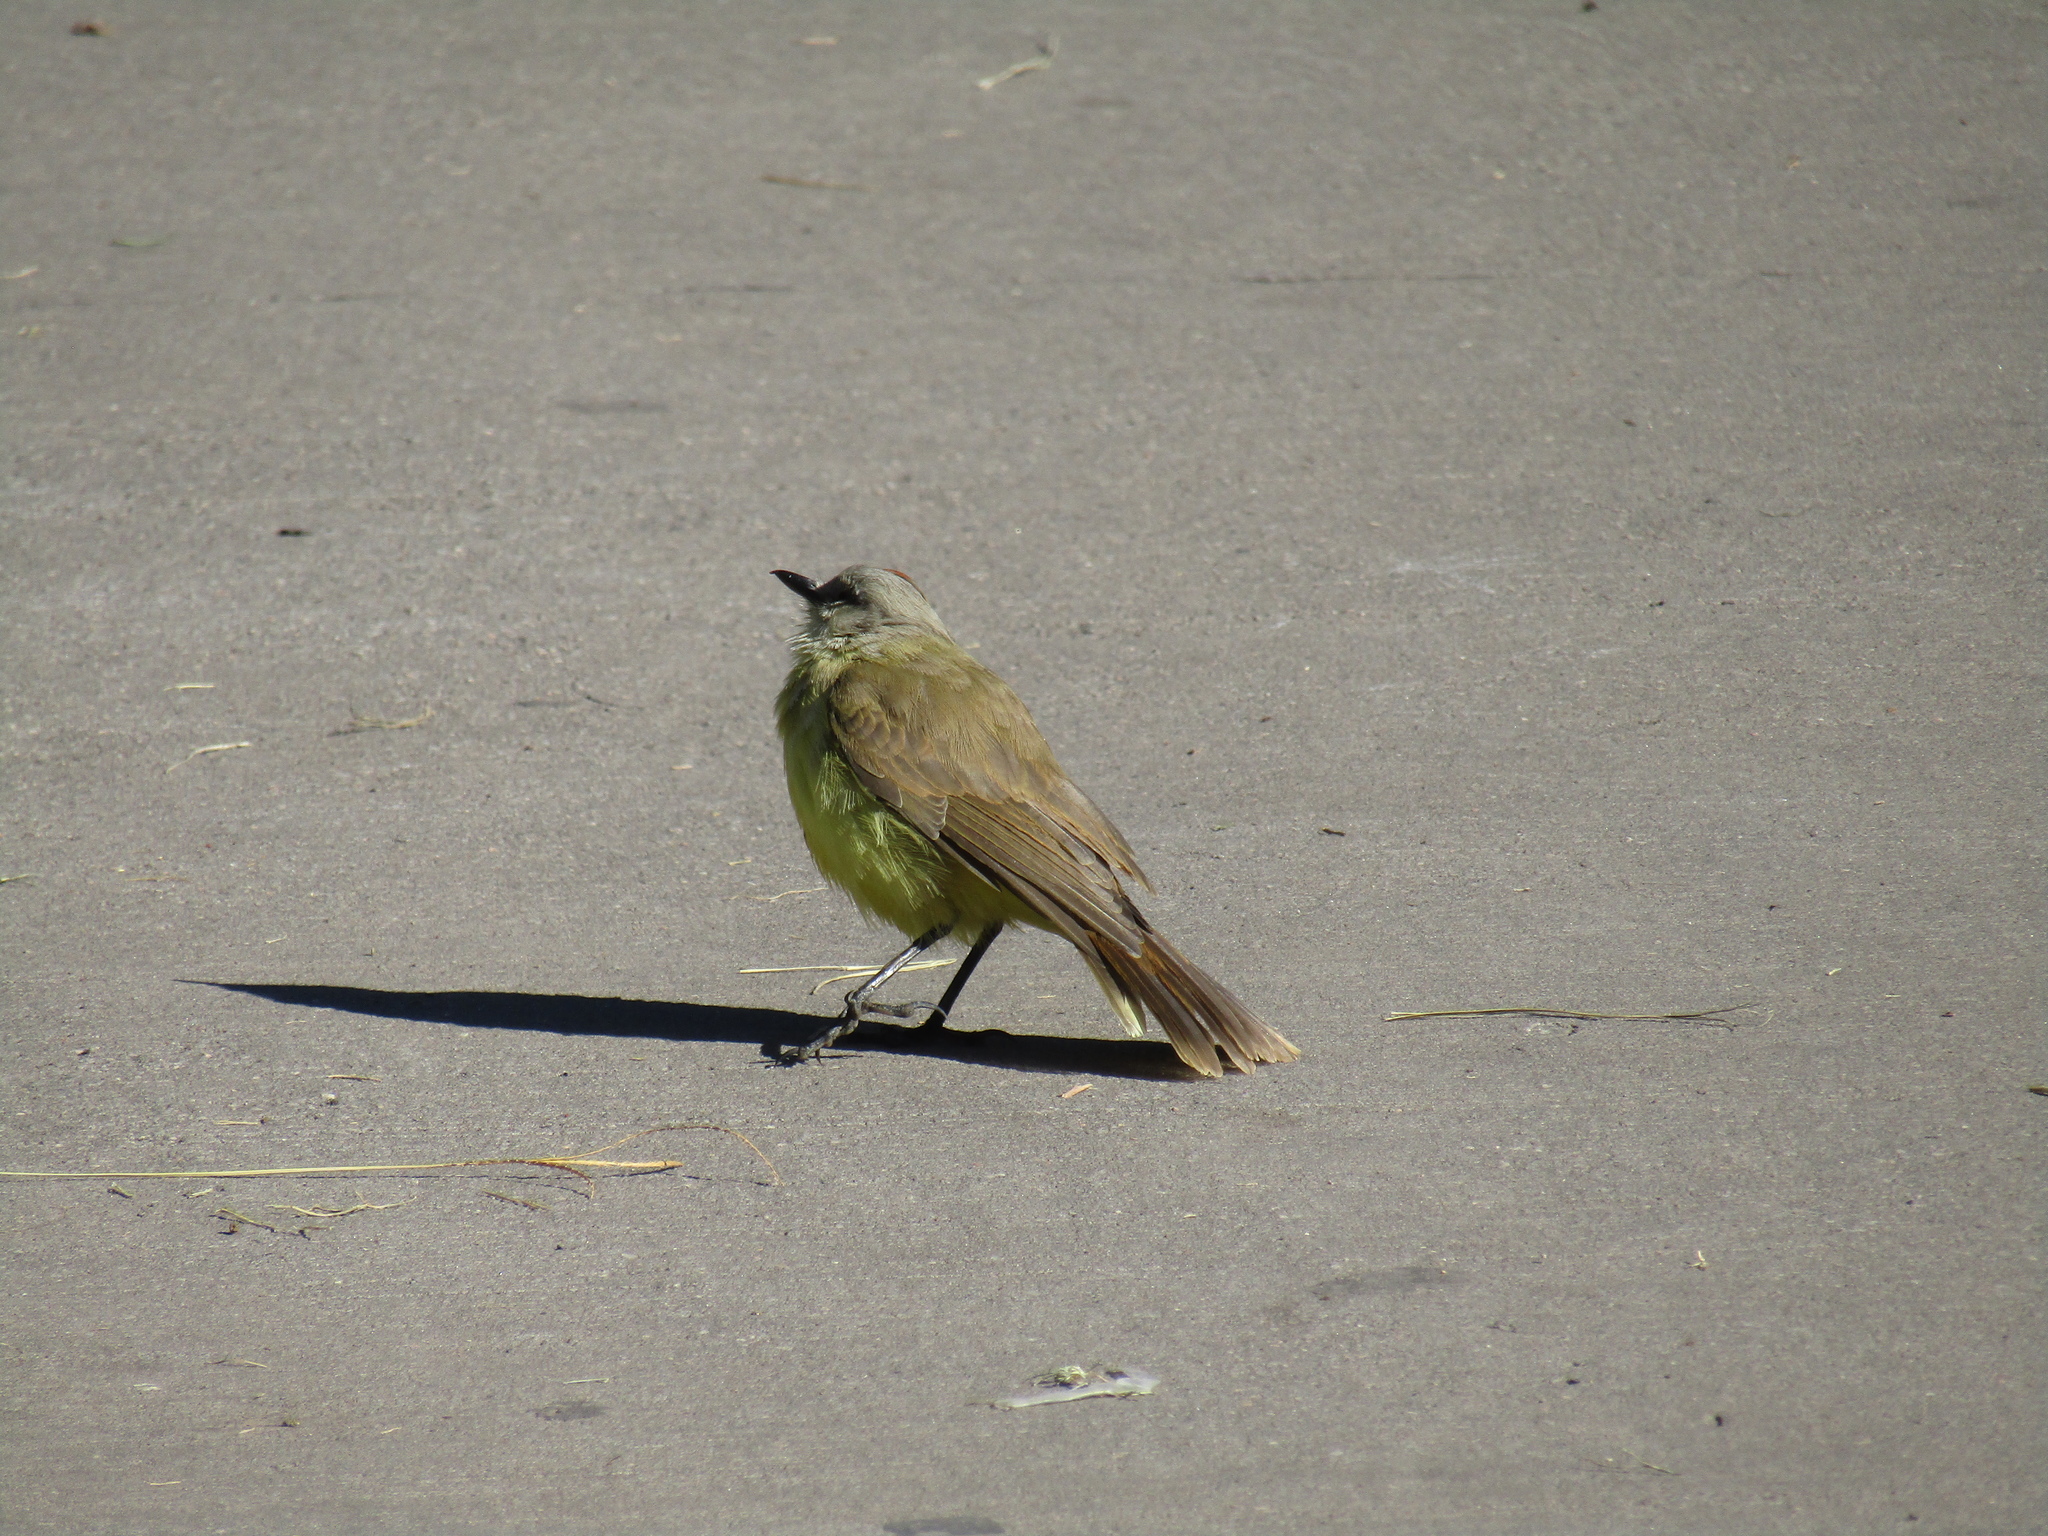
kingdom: Animalia
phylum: Chordata
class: Aves
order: Passeriformes
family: Tyrannidae
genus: Machetornis
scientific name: Machetornis rixosa
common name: Cattle tyrant
